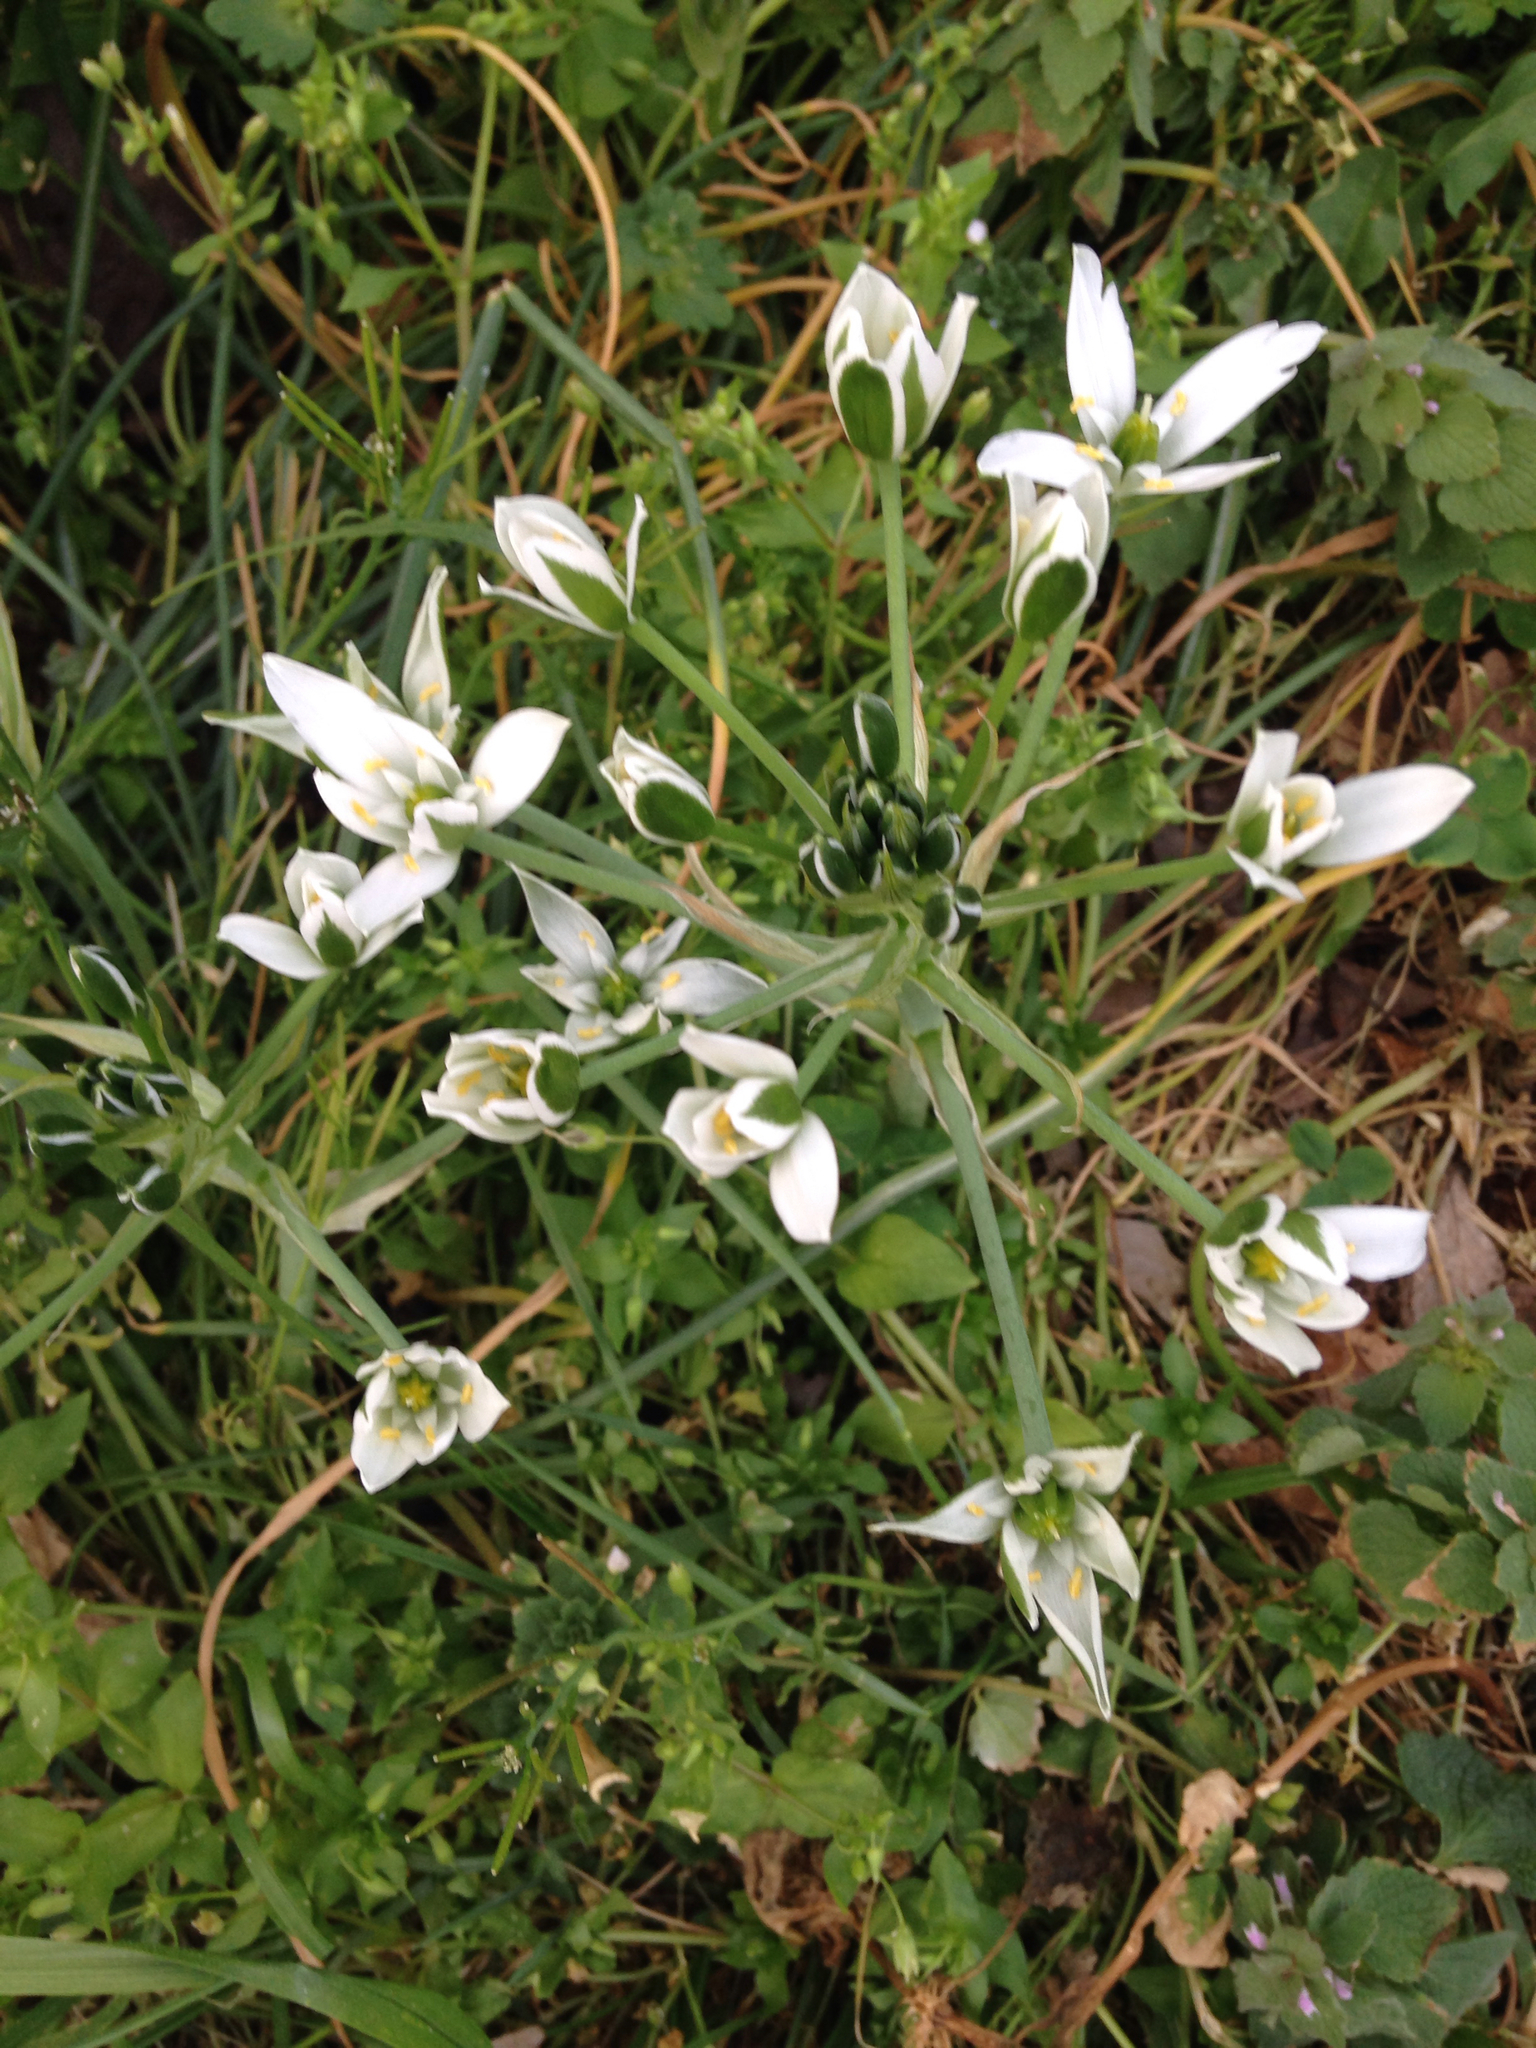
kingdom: Plantae
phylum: Tracheophyta
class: Liliopsida
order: Asparagales
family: Asparagaceae
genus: Ornithogalum
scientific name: Ornithogalum umbellatum
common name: Garden star-of-bethlehem
